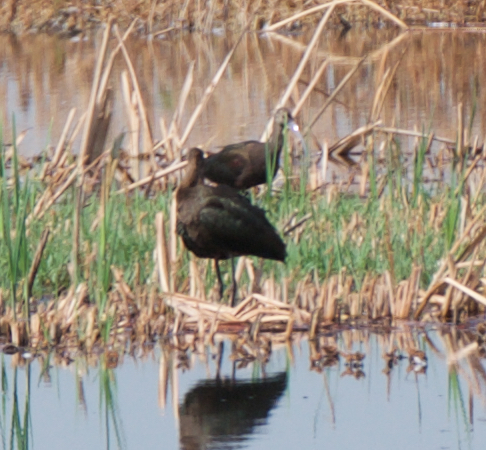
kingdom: Animalia
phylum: Chordata
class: Aves
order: Pelecaniformes
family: Threskiornithidae
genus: Plegadis
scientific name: Plegadis chihi
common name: White-faced ibis
